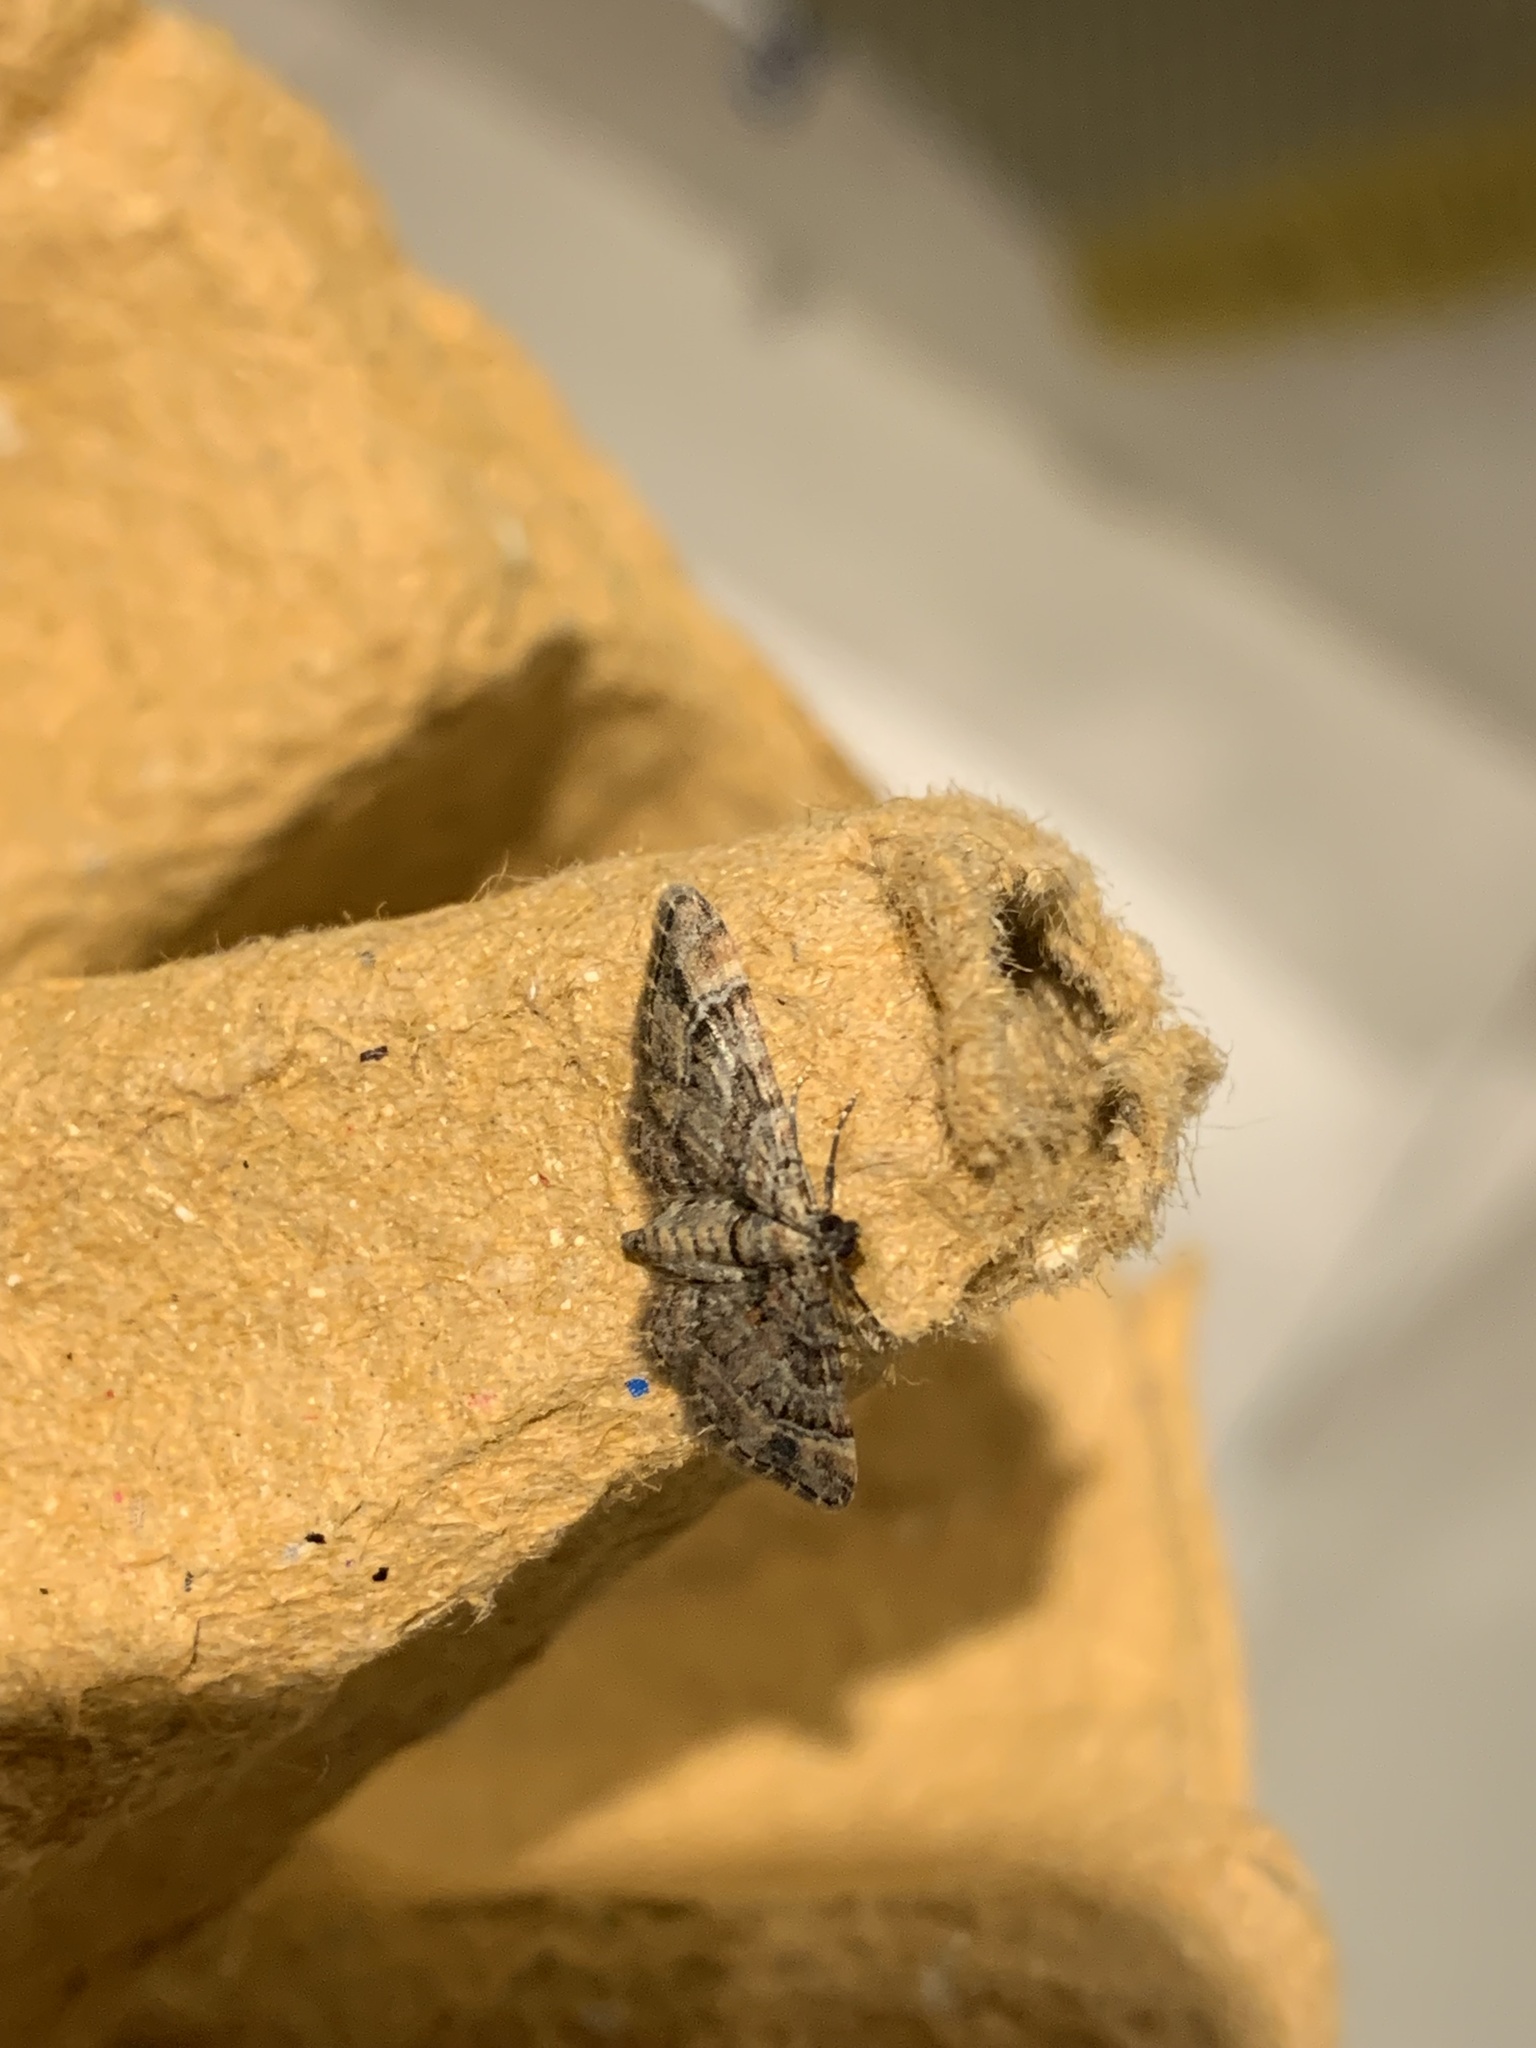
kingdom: Animalia
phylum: Arthropoda
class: Insecta
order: Lepidoptera
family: Geometridae
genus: Gymnoscelis
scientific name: Gymnoscelis rufifasciata
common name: Double-striped pug
